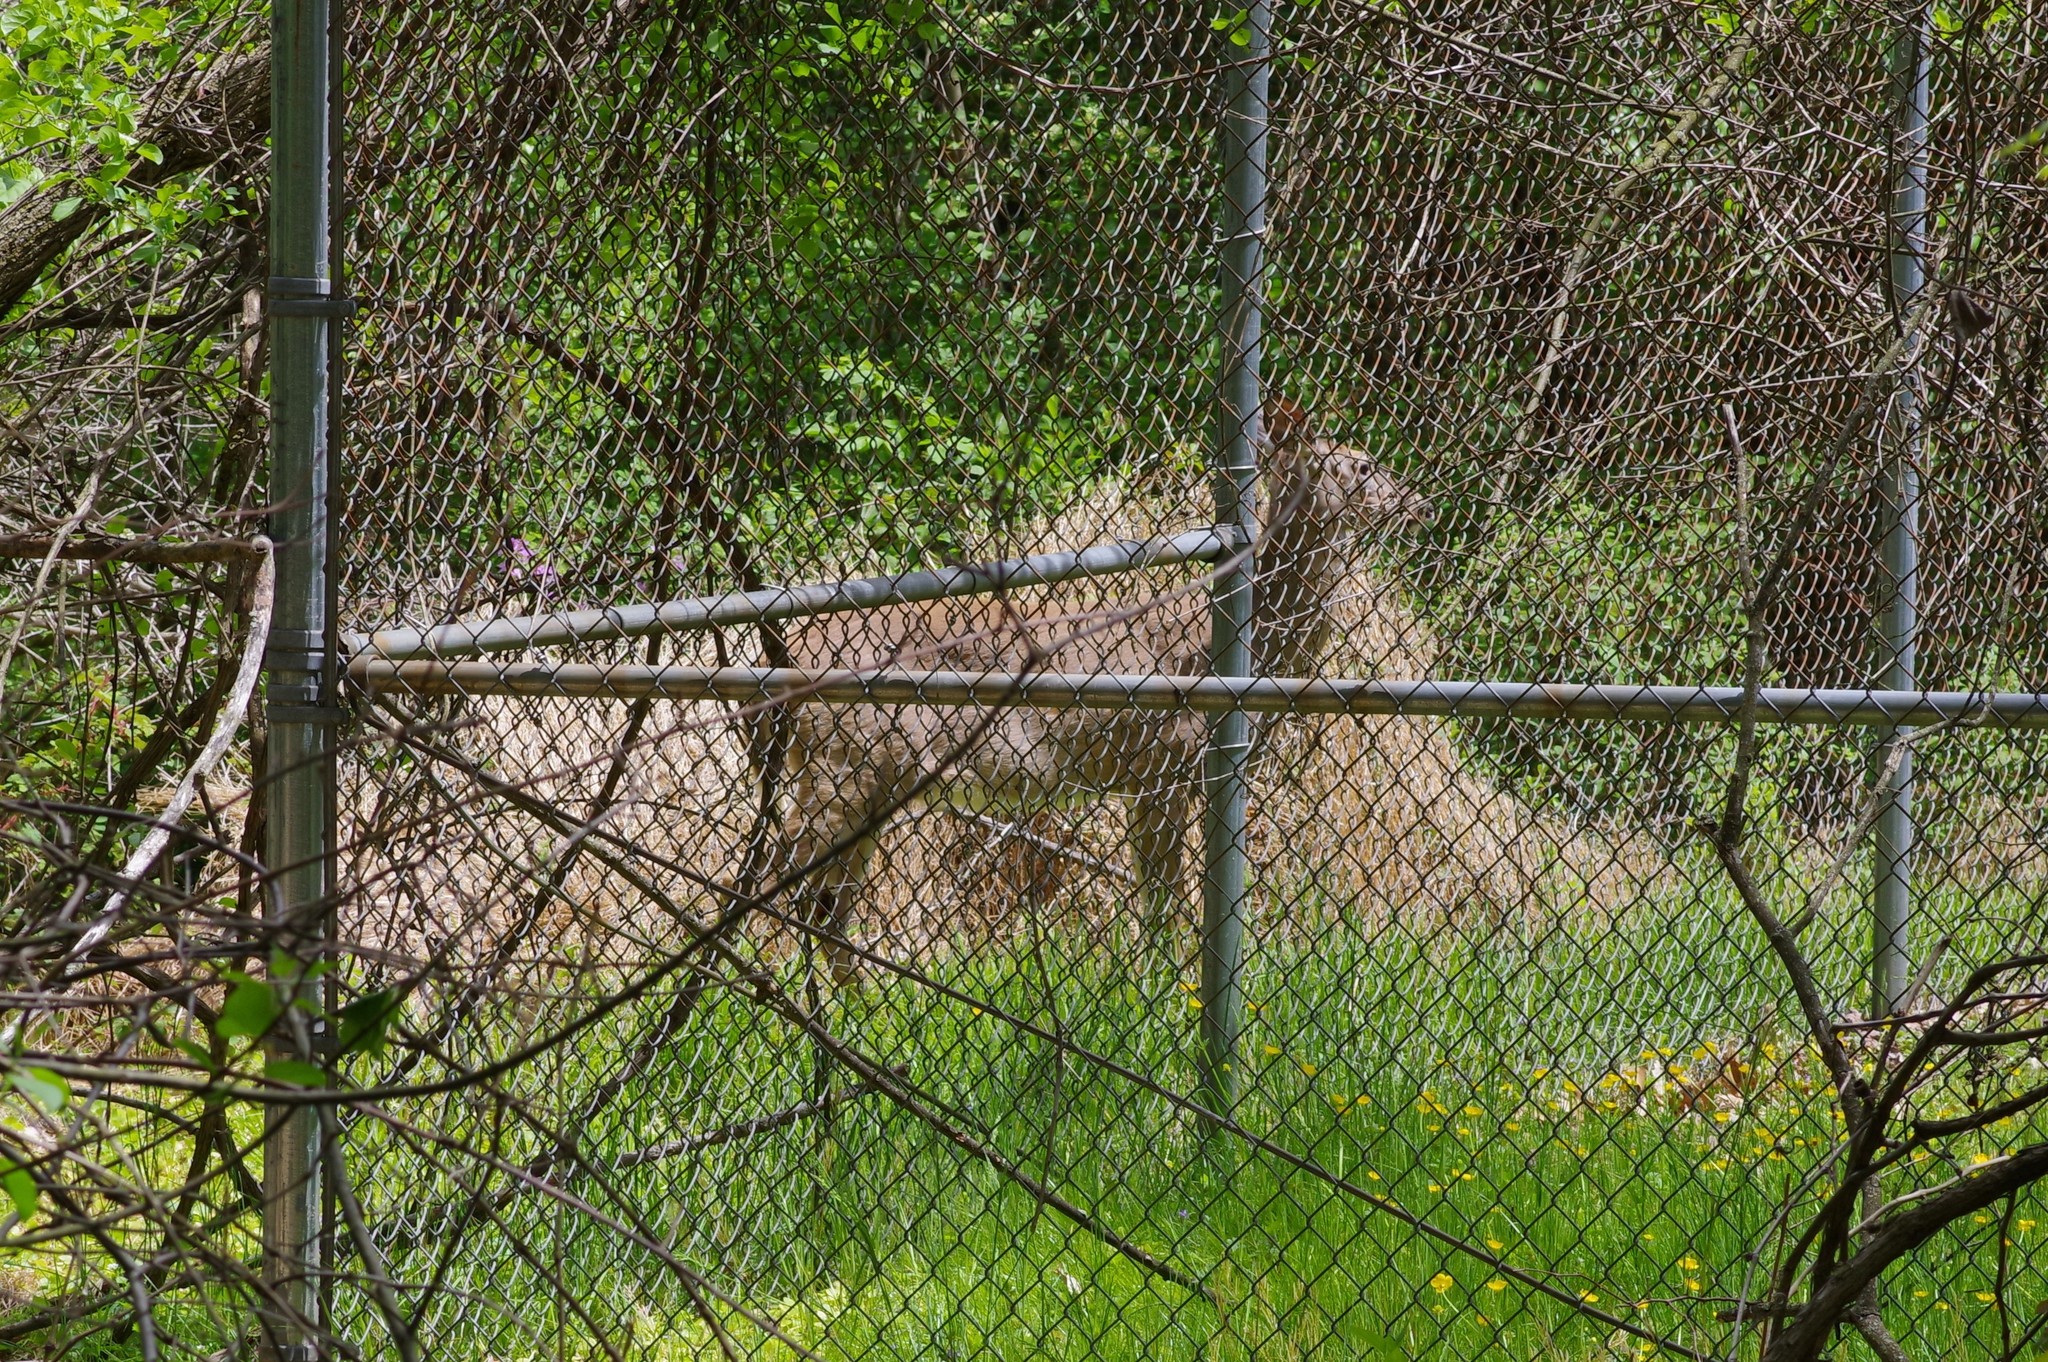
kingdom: Animalia
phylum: Chordata
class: Mammalia
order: Artiodactyla
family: Cervidae
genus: Odocoileus
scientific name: Odocoileus virginianus
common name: White-tailed deer
